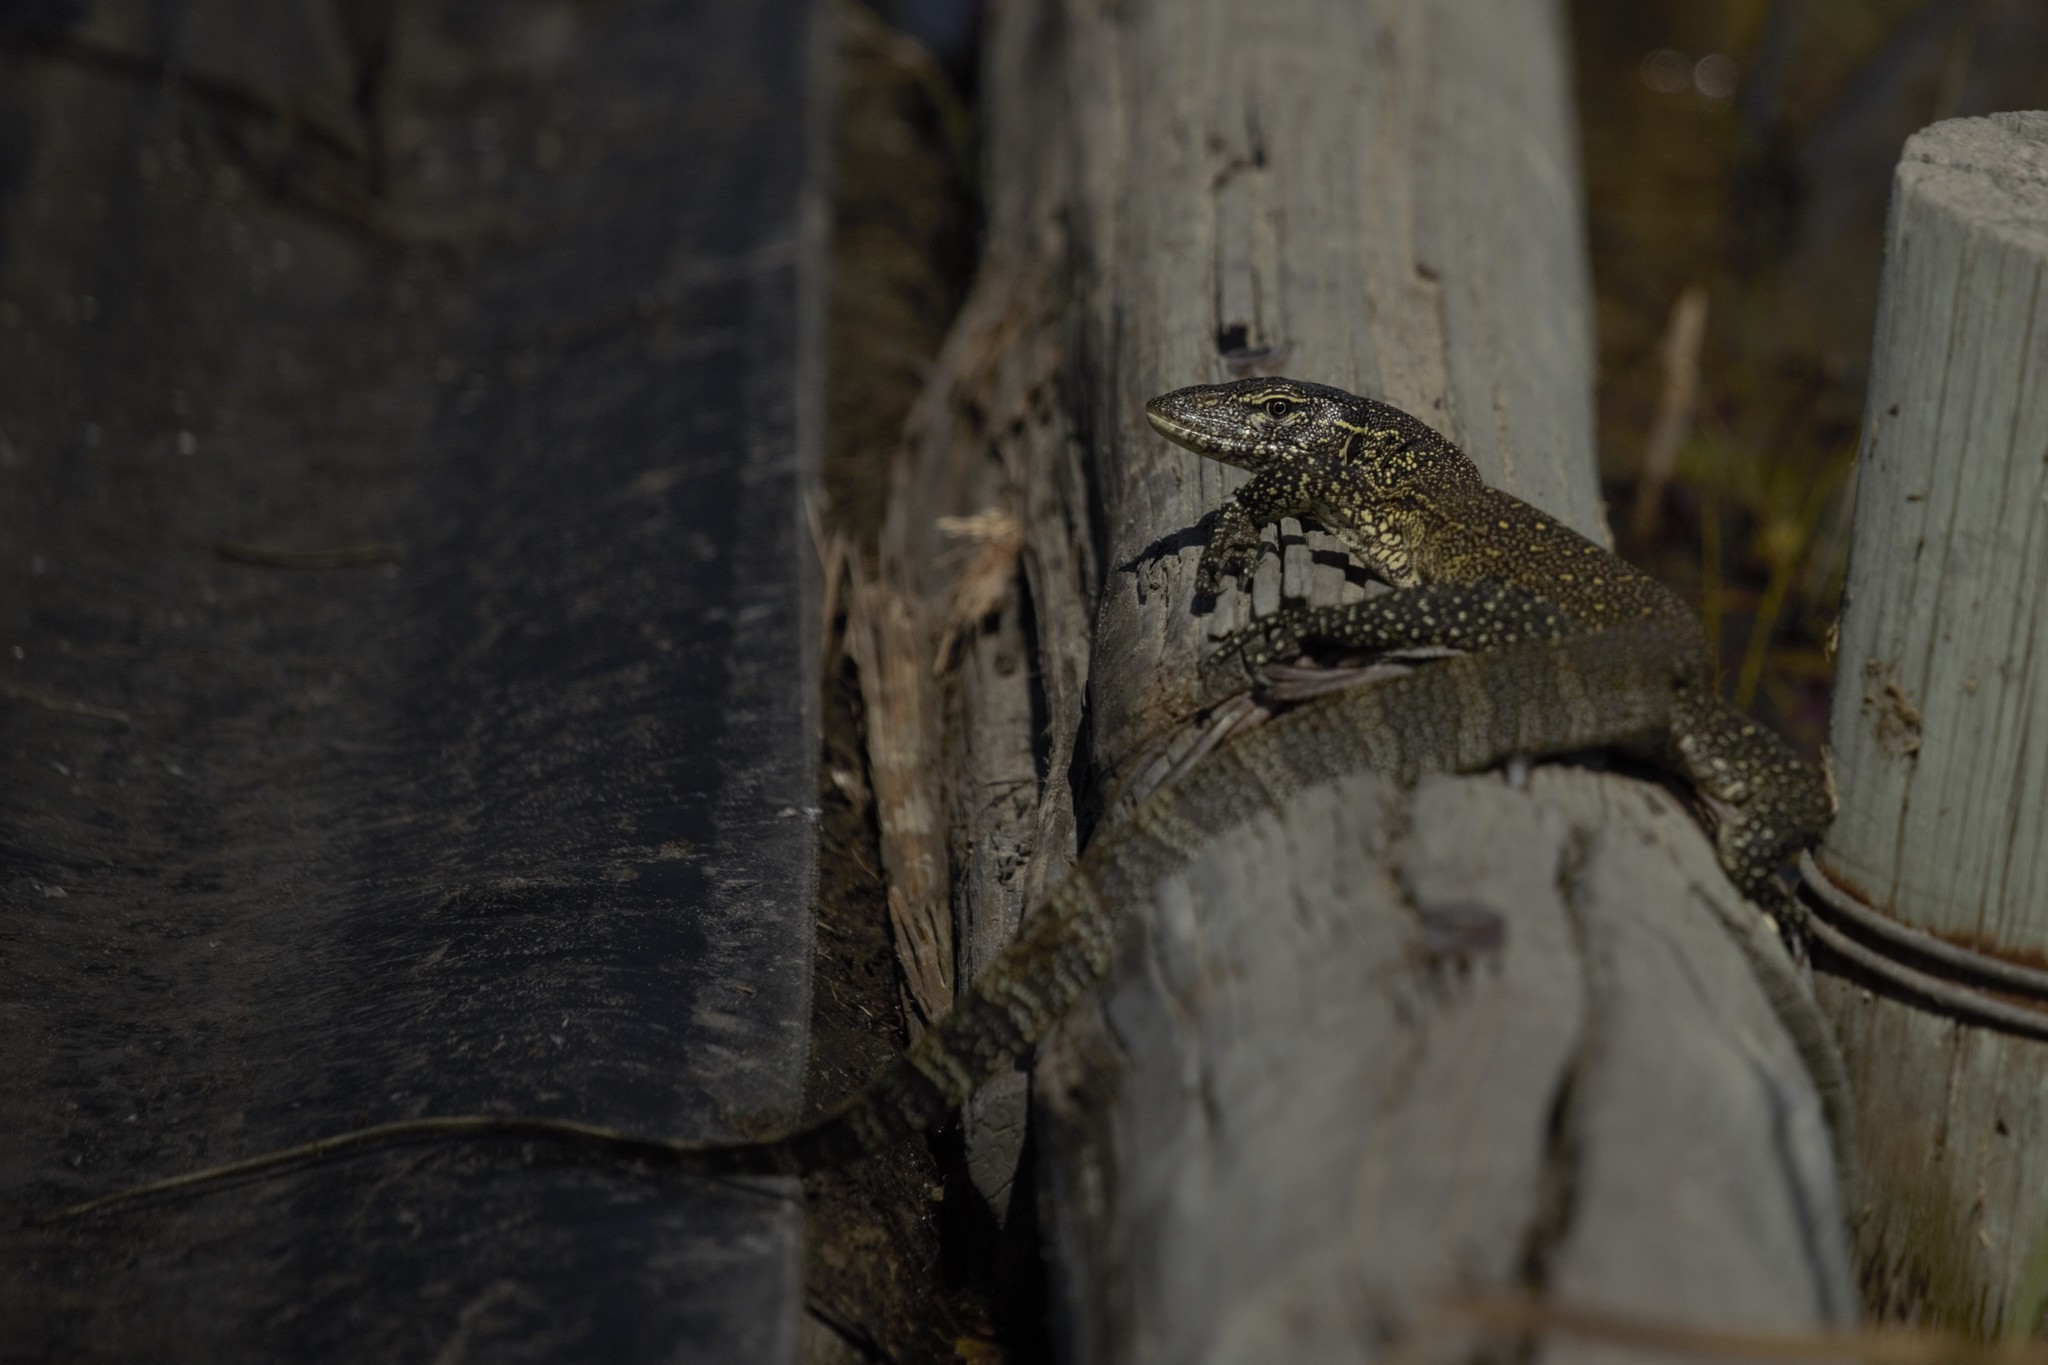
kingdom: Animalia
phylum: Chordata
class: Squamata
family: Varanidae
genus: Varanus
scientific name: Varanus niloticus
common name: Nile monitor
